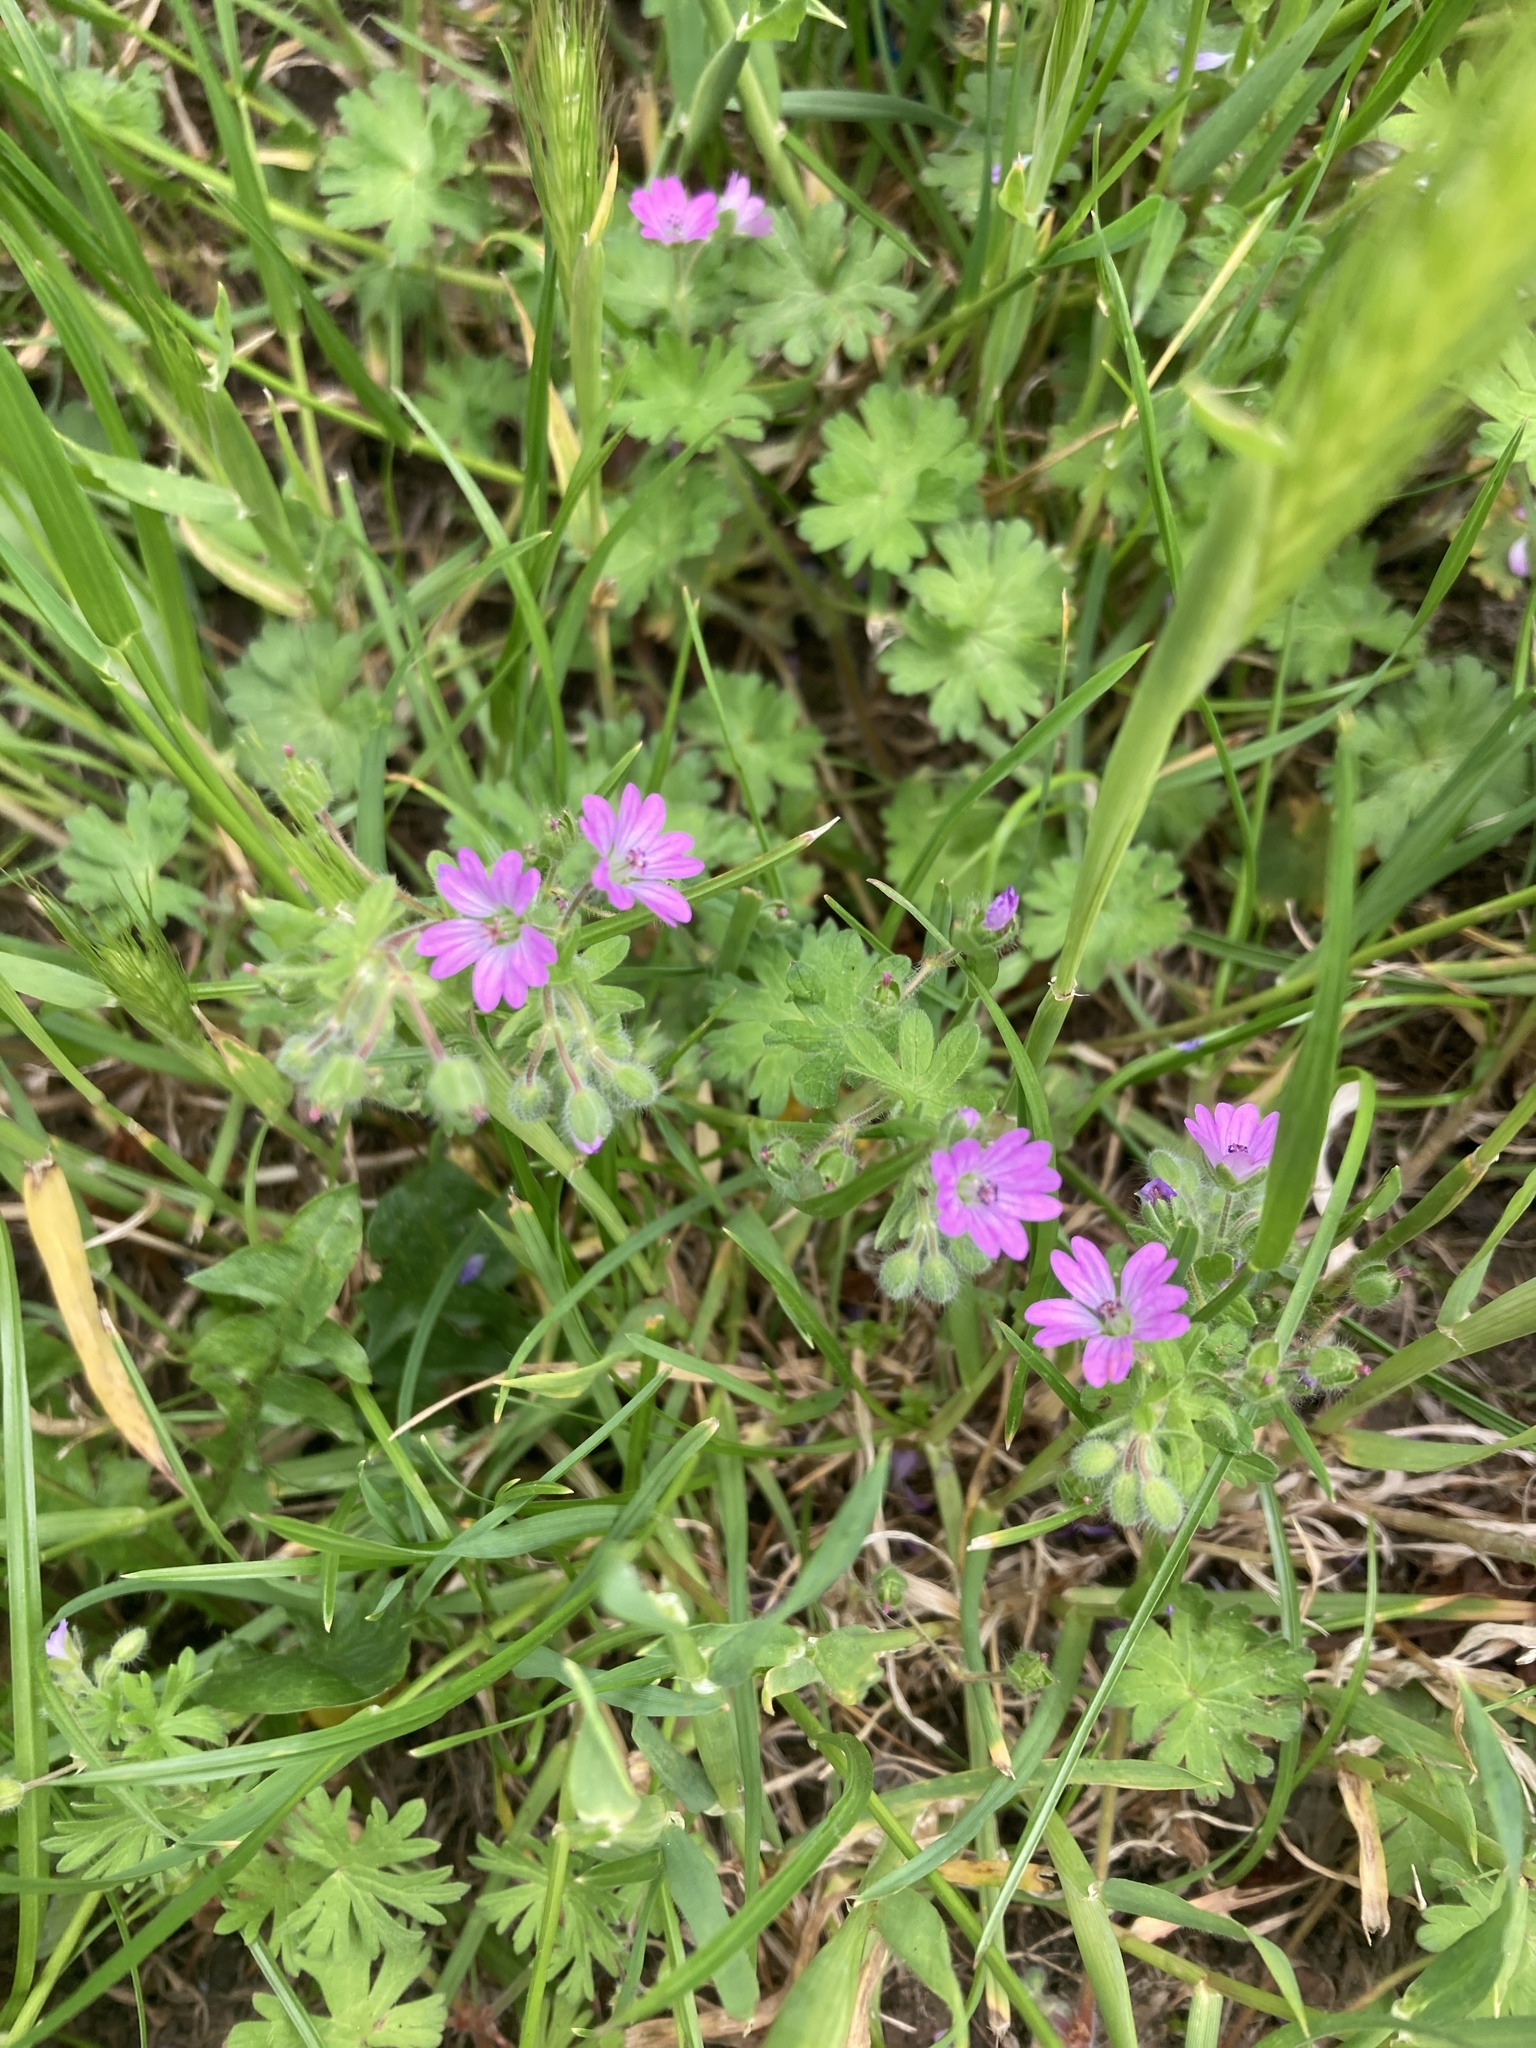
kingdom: Plantae
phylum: Tracheophyta
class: Magnoliopsida
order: Geraniales
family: Geraniaceae
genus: Geranium
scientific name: Geranium molle
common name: Dove's-foot crane's-bill
